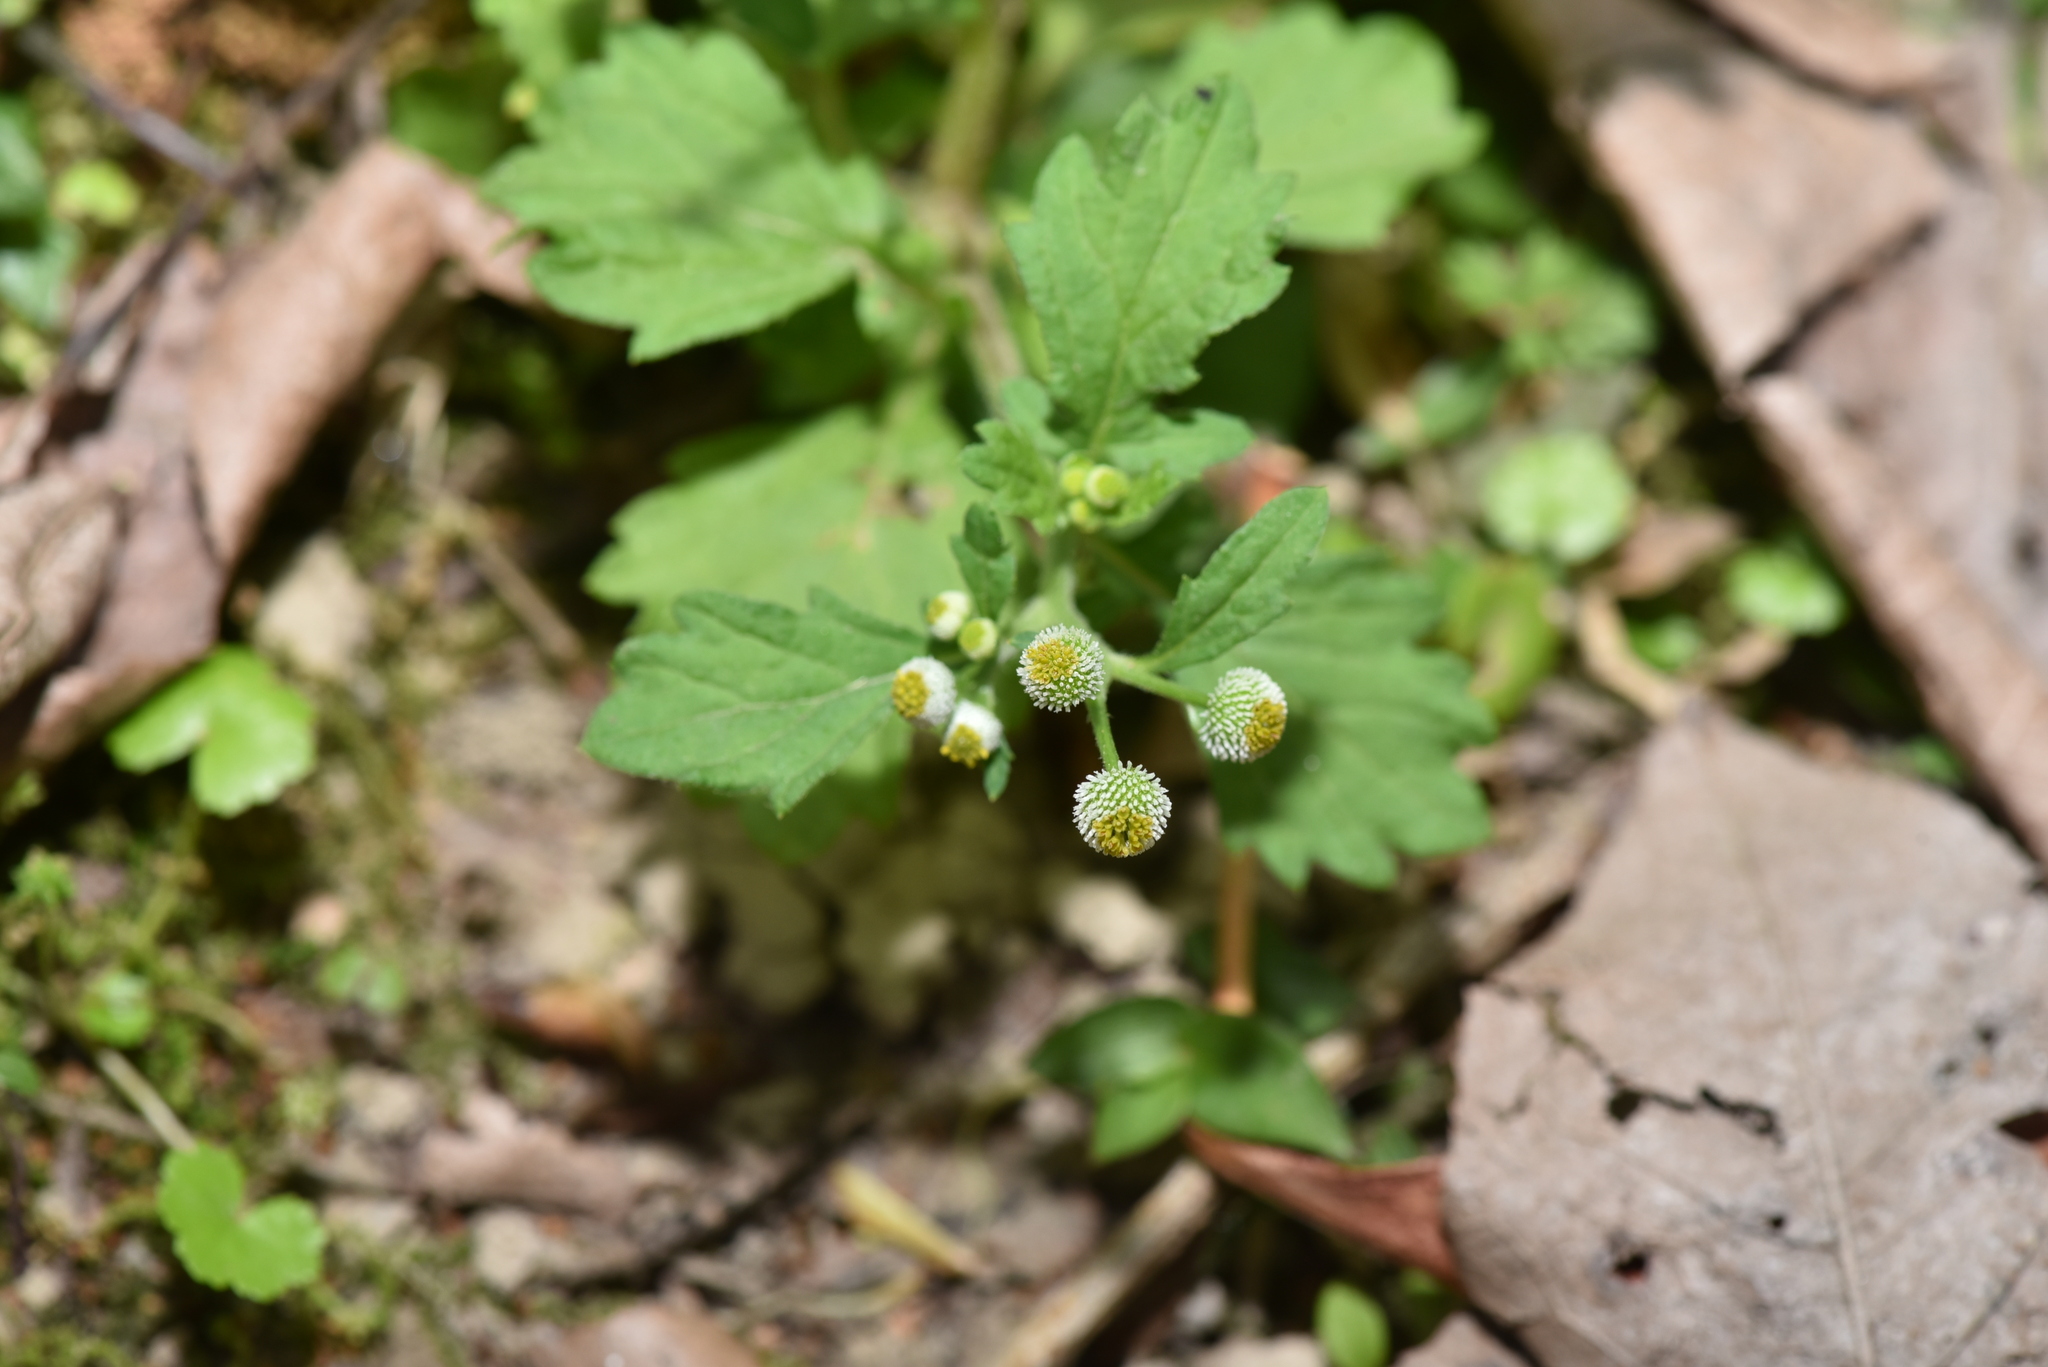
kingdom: Plantae
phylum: Tracheophyta
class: Magnoliopsida
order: Asterales
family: Asteraceae
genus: Dichrocephala
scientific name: Dichrocephala integrifolia
